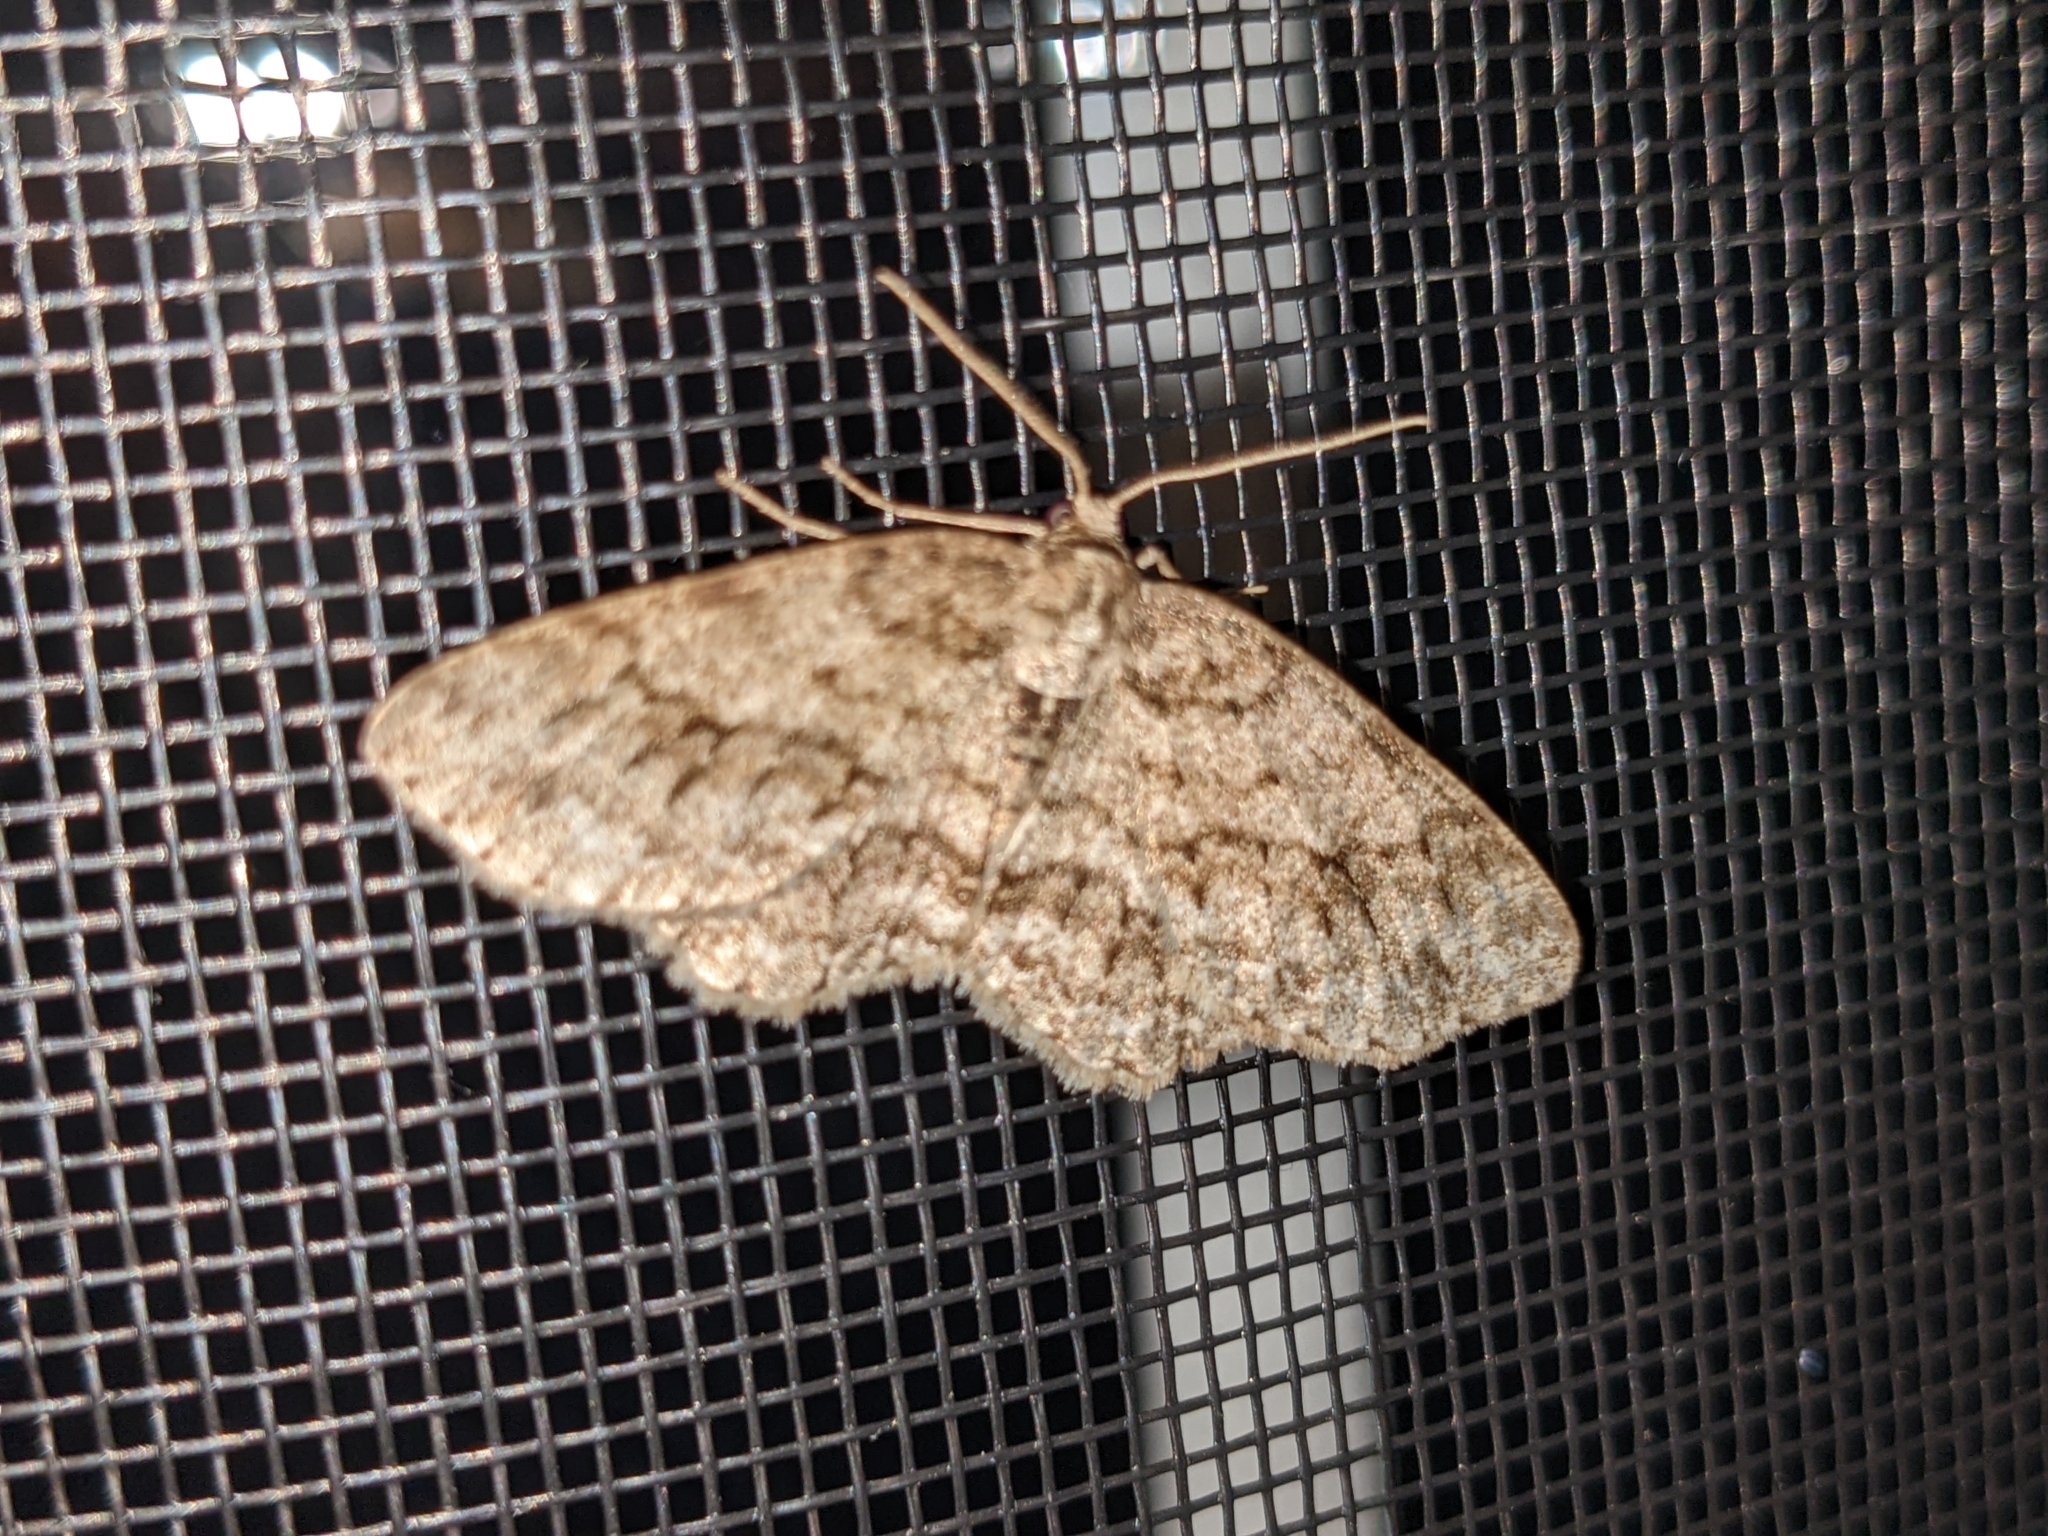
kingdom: Animalia
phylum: Arthropoda
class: Insecta
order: Lepidoptera
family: Geometridae
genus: Ectropis
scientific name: Ectropis crepuscularia
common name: Engrailed
